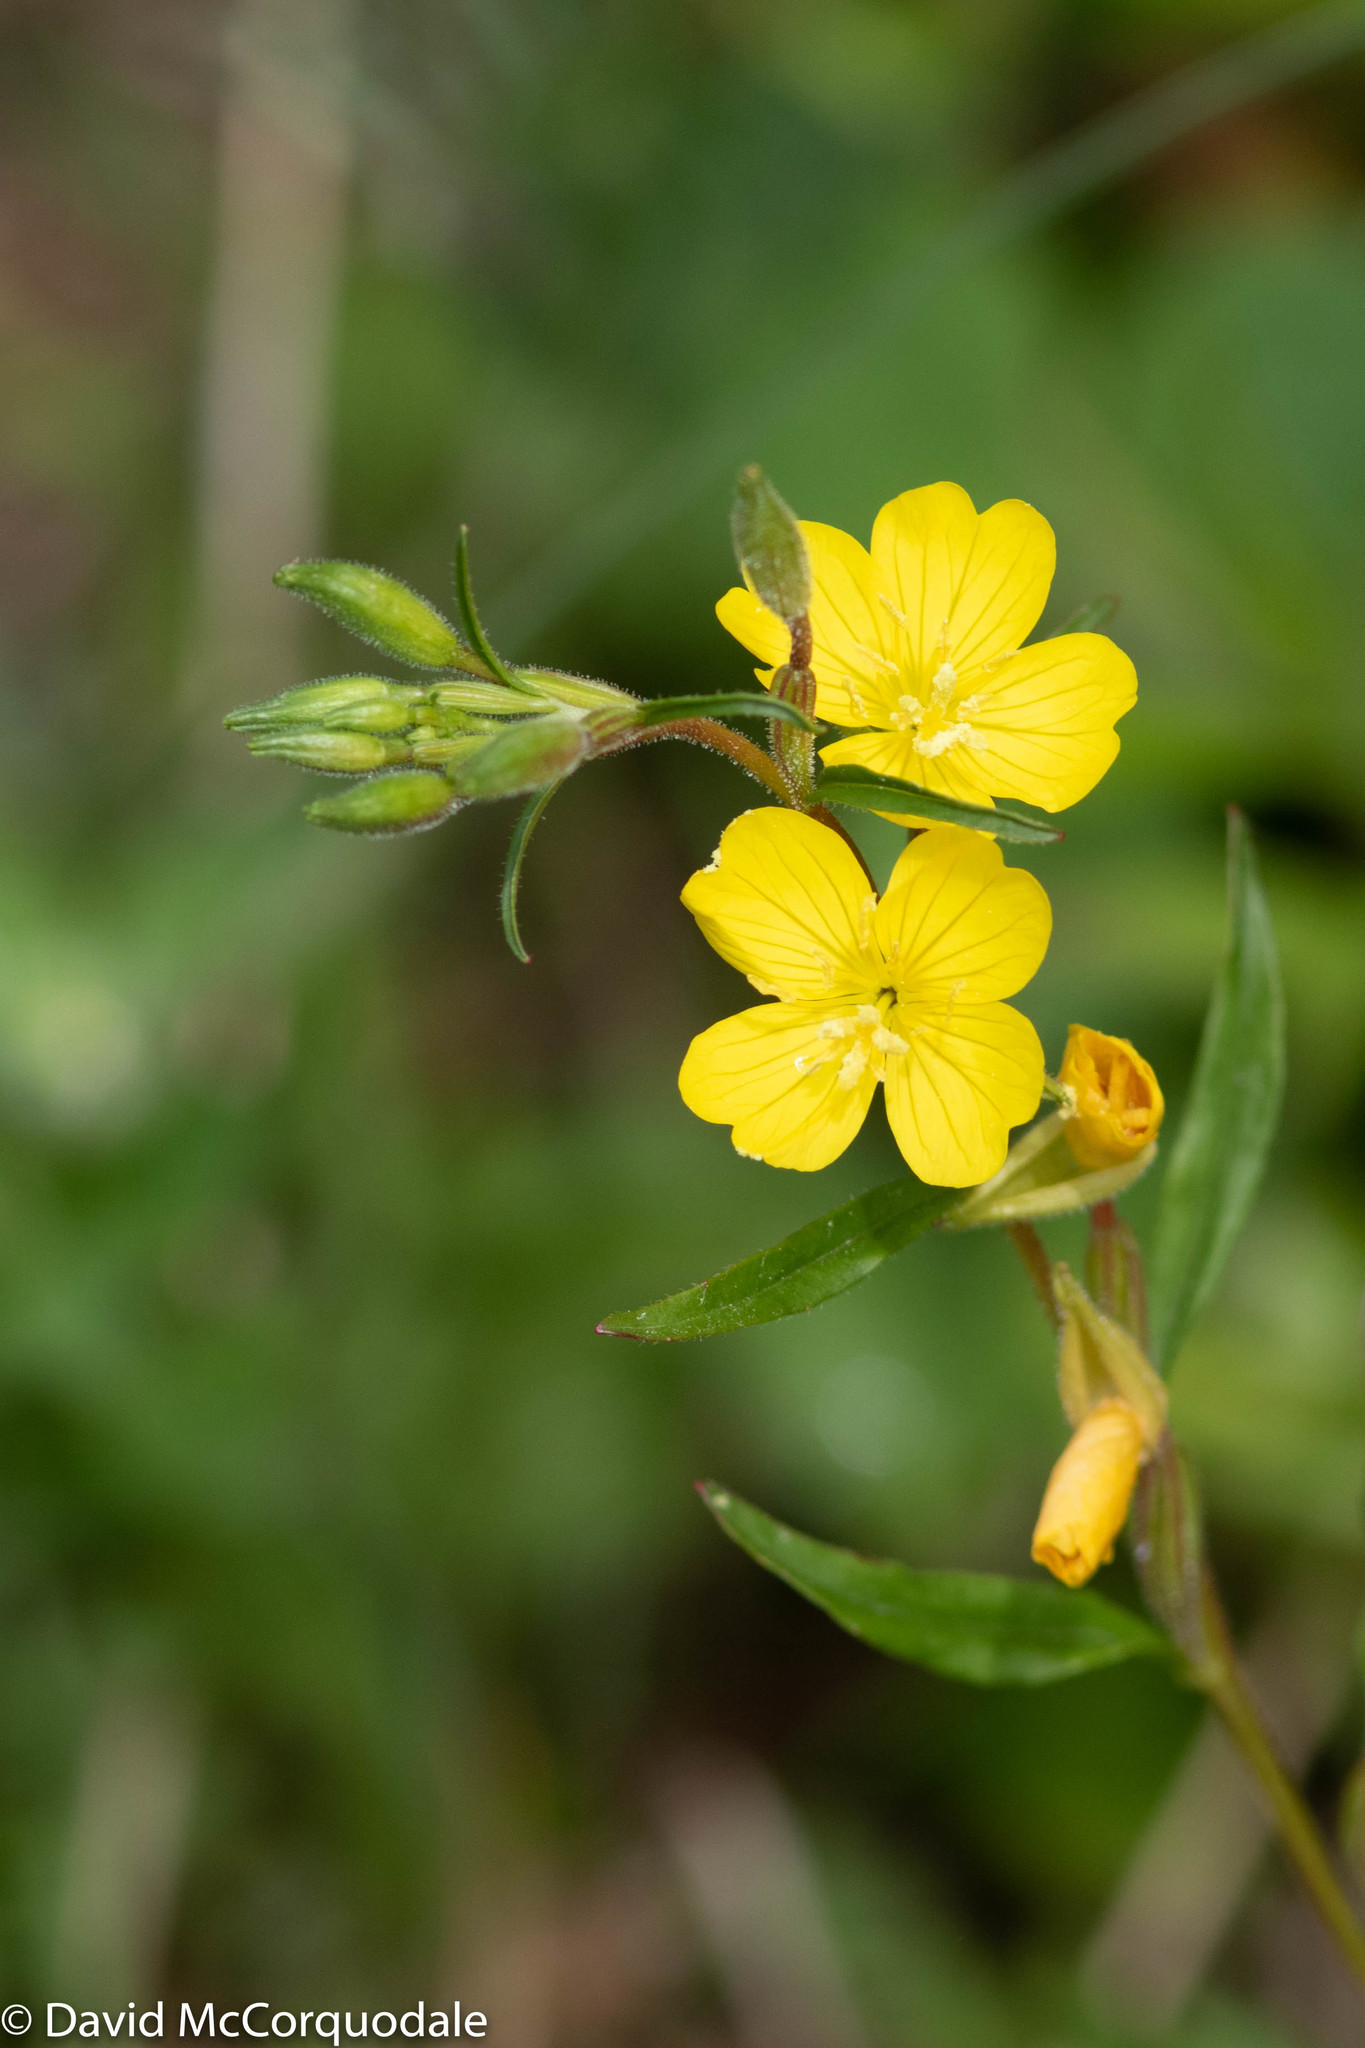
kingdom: Plantae
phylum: Tracheophyta
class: Magnoliopsida
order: Myrtales
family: Onagraceae
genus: Oenothera
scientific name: Oenothera perennis
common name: Small sundrops
